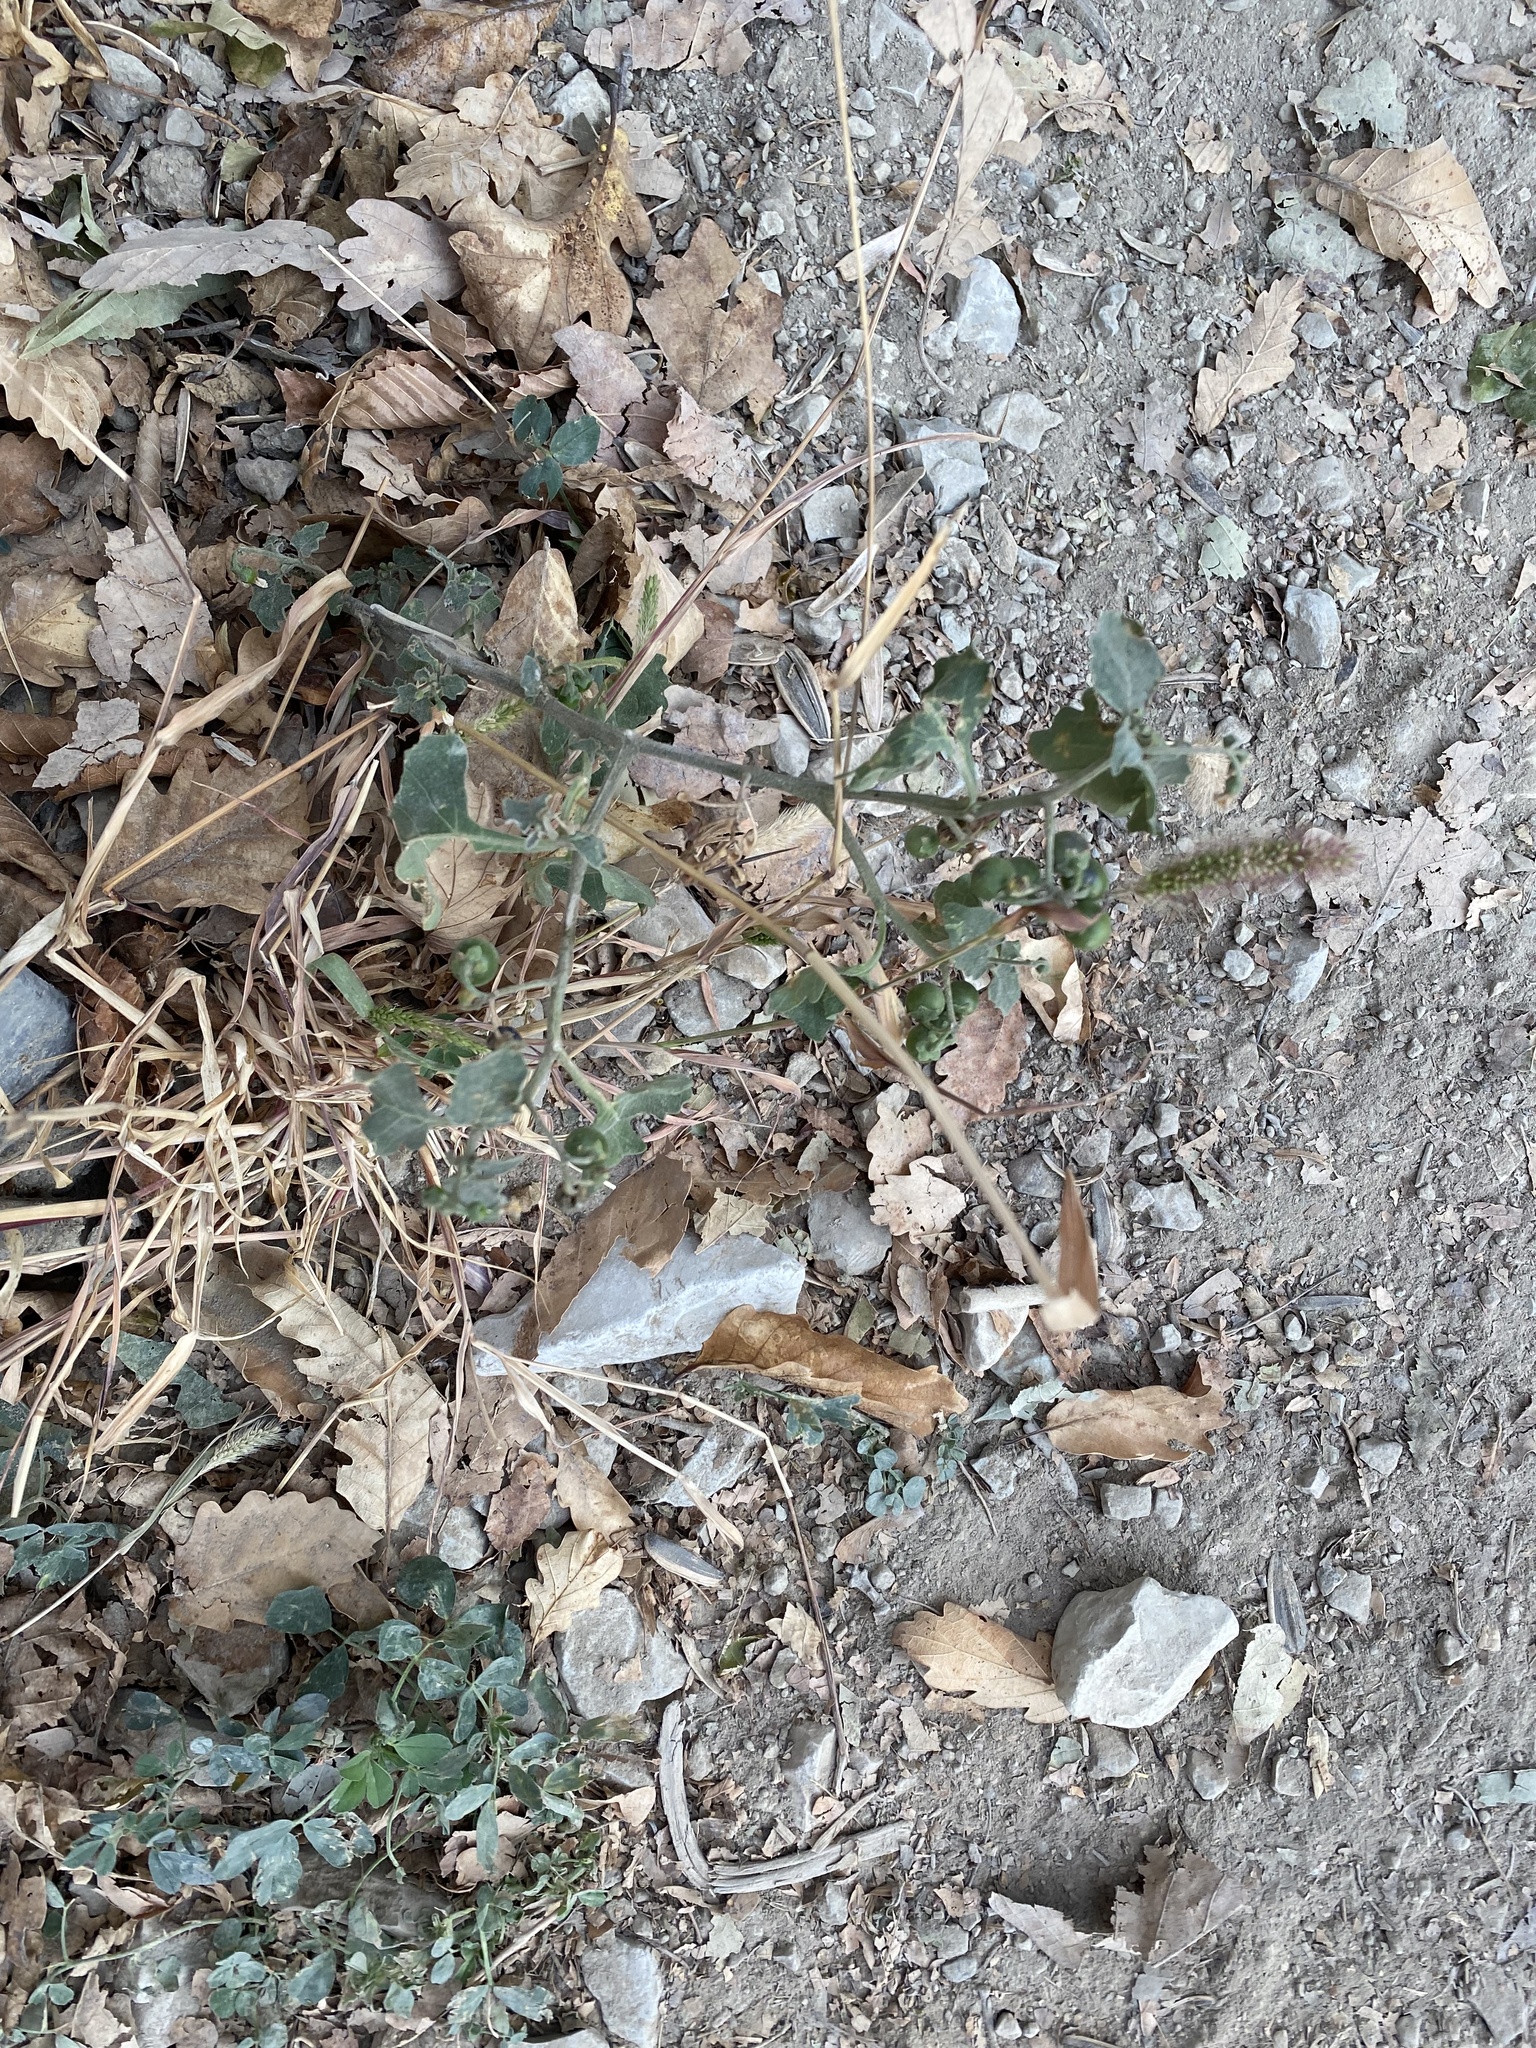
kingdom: Plantae
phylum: Tracheophyta
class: Magnoliopsida
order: Solanales
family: Solanaceae
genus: Solanum
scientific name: Solanum nigrum
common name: Black nightshade
